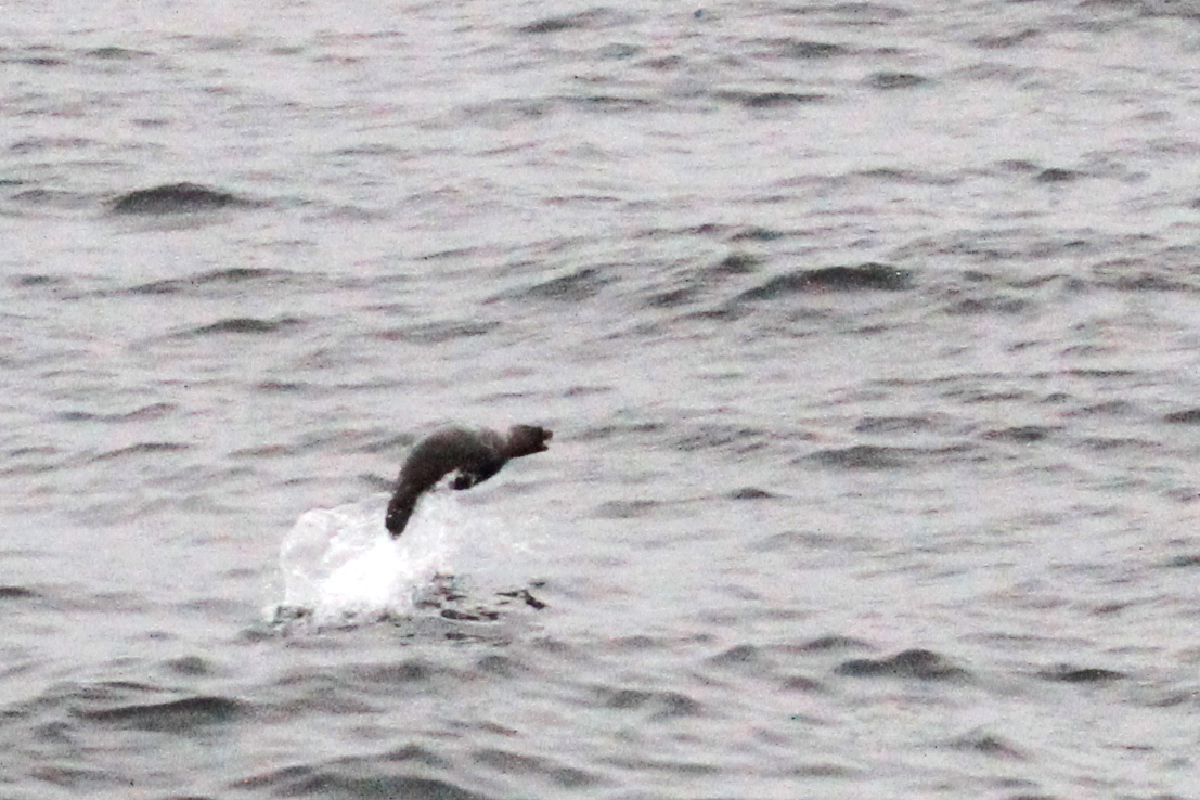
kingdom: Animalia
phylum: Chordata
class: Mammalia
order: Carnivora
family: Otariidae
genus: Zalophus
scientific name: Zalophus californianus
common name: California sea lion
